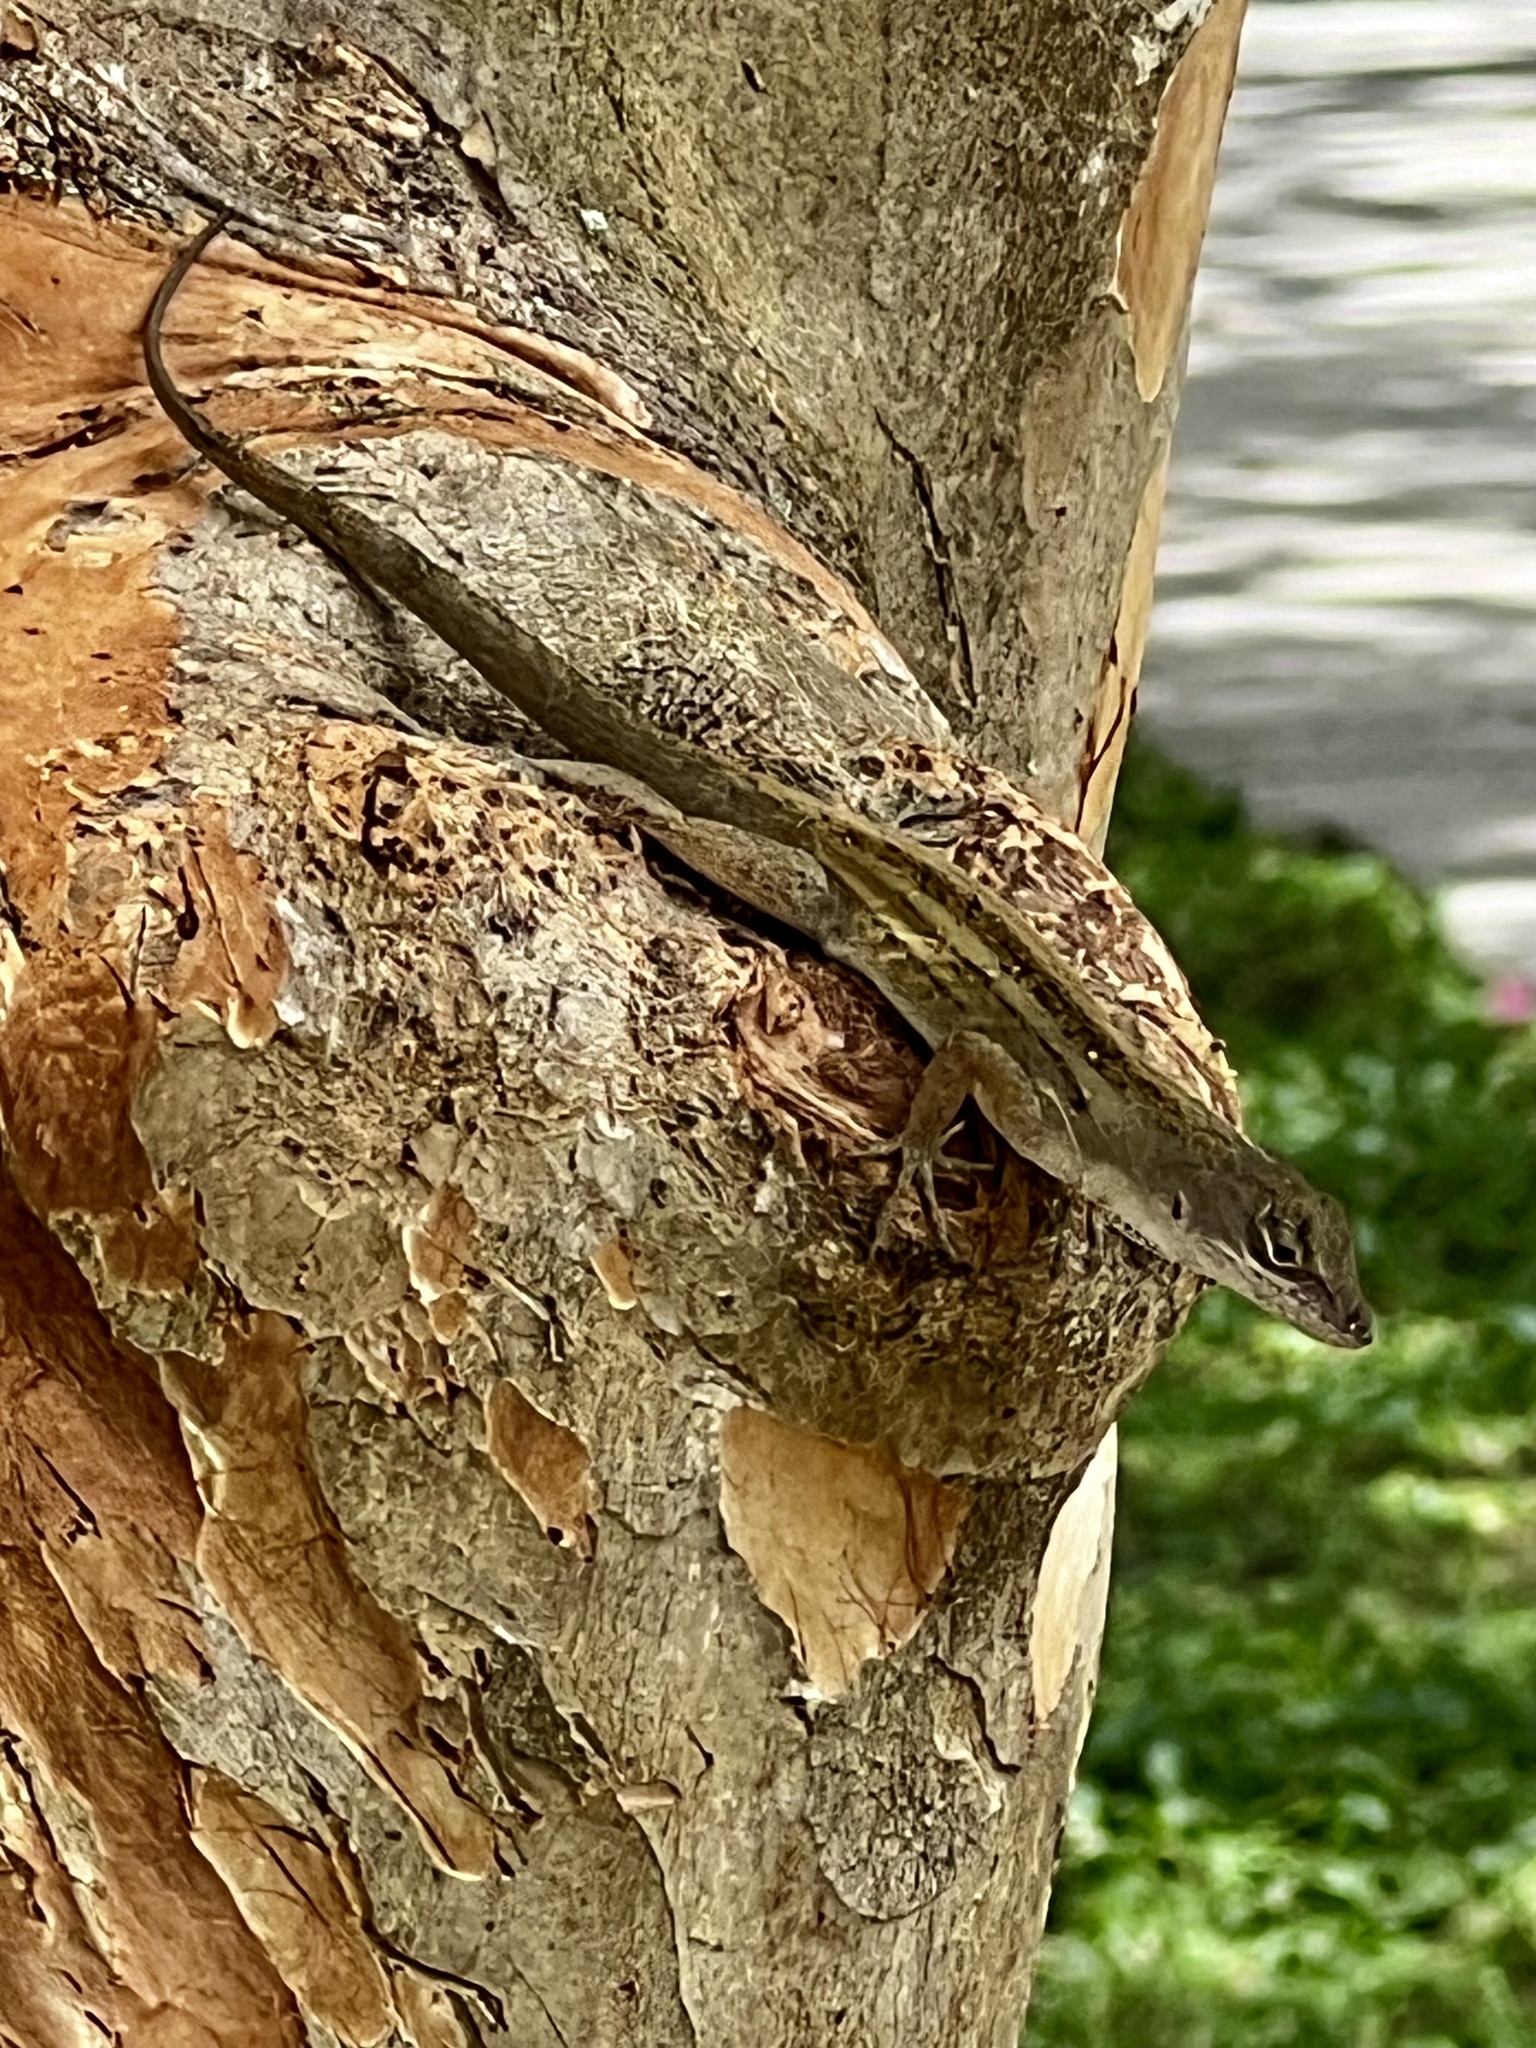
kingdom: Animalia
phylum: Chordata
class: Squamata
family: Dactyloidae
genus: Anolis
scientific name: Anolis sagrei
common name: Brown anole
